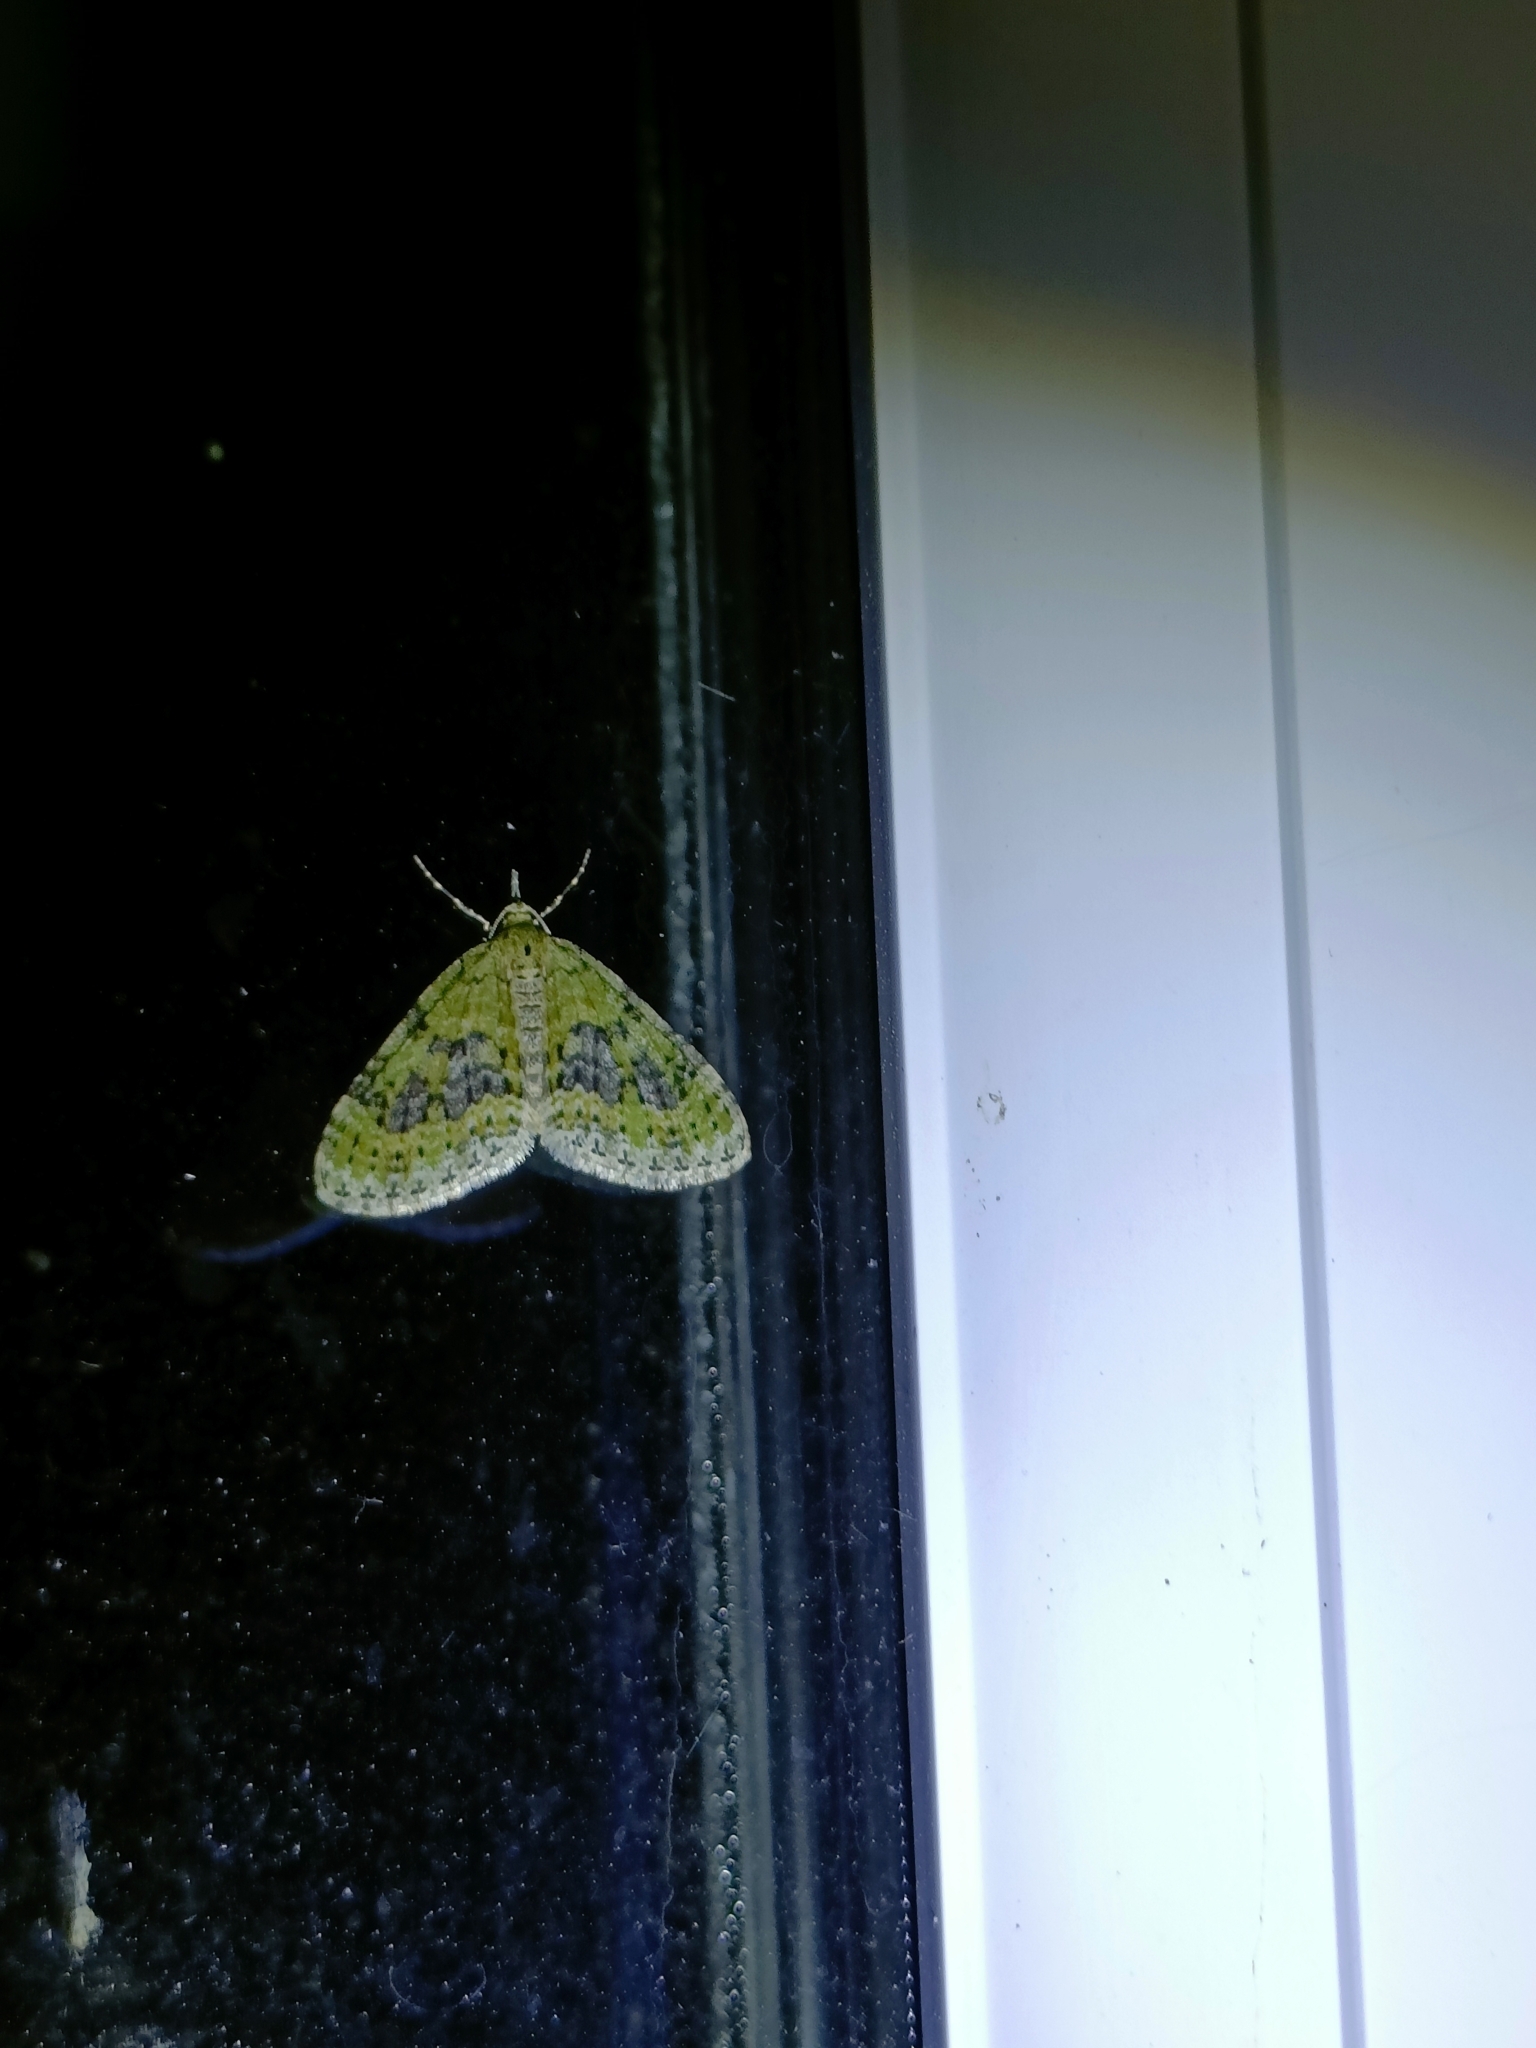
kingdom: Animalia
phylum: Arthropoda
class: Insecta
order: Lepidoptera
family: Geometridae
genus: Acasis
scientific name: Acasis viretata
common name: Yellow-barred brindle
